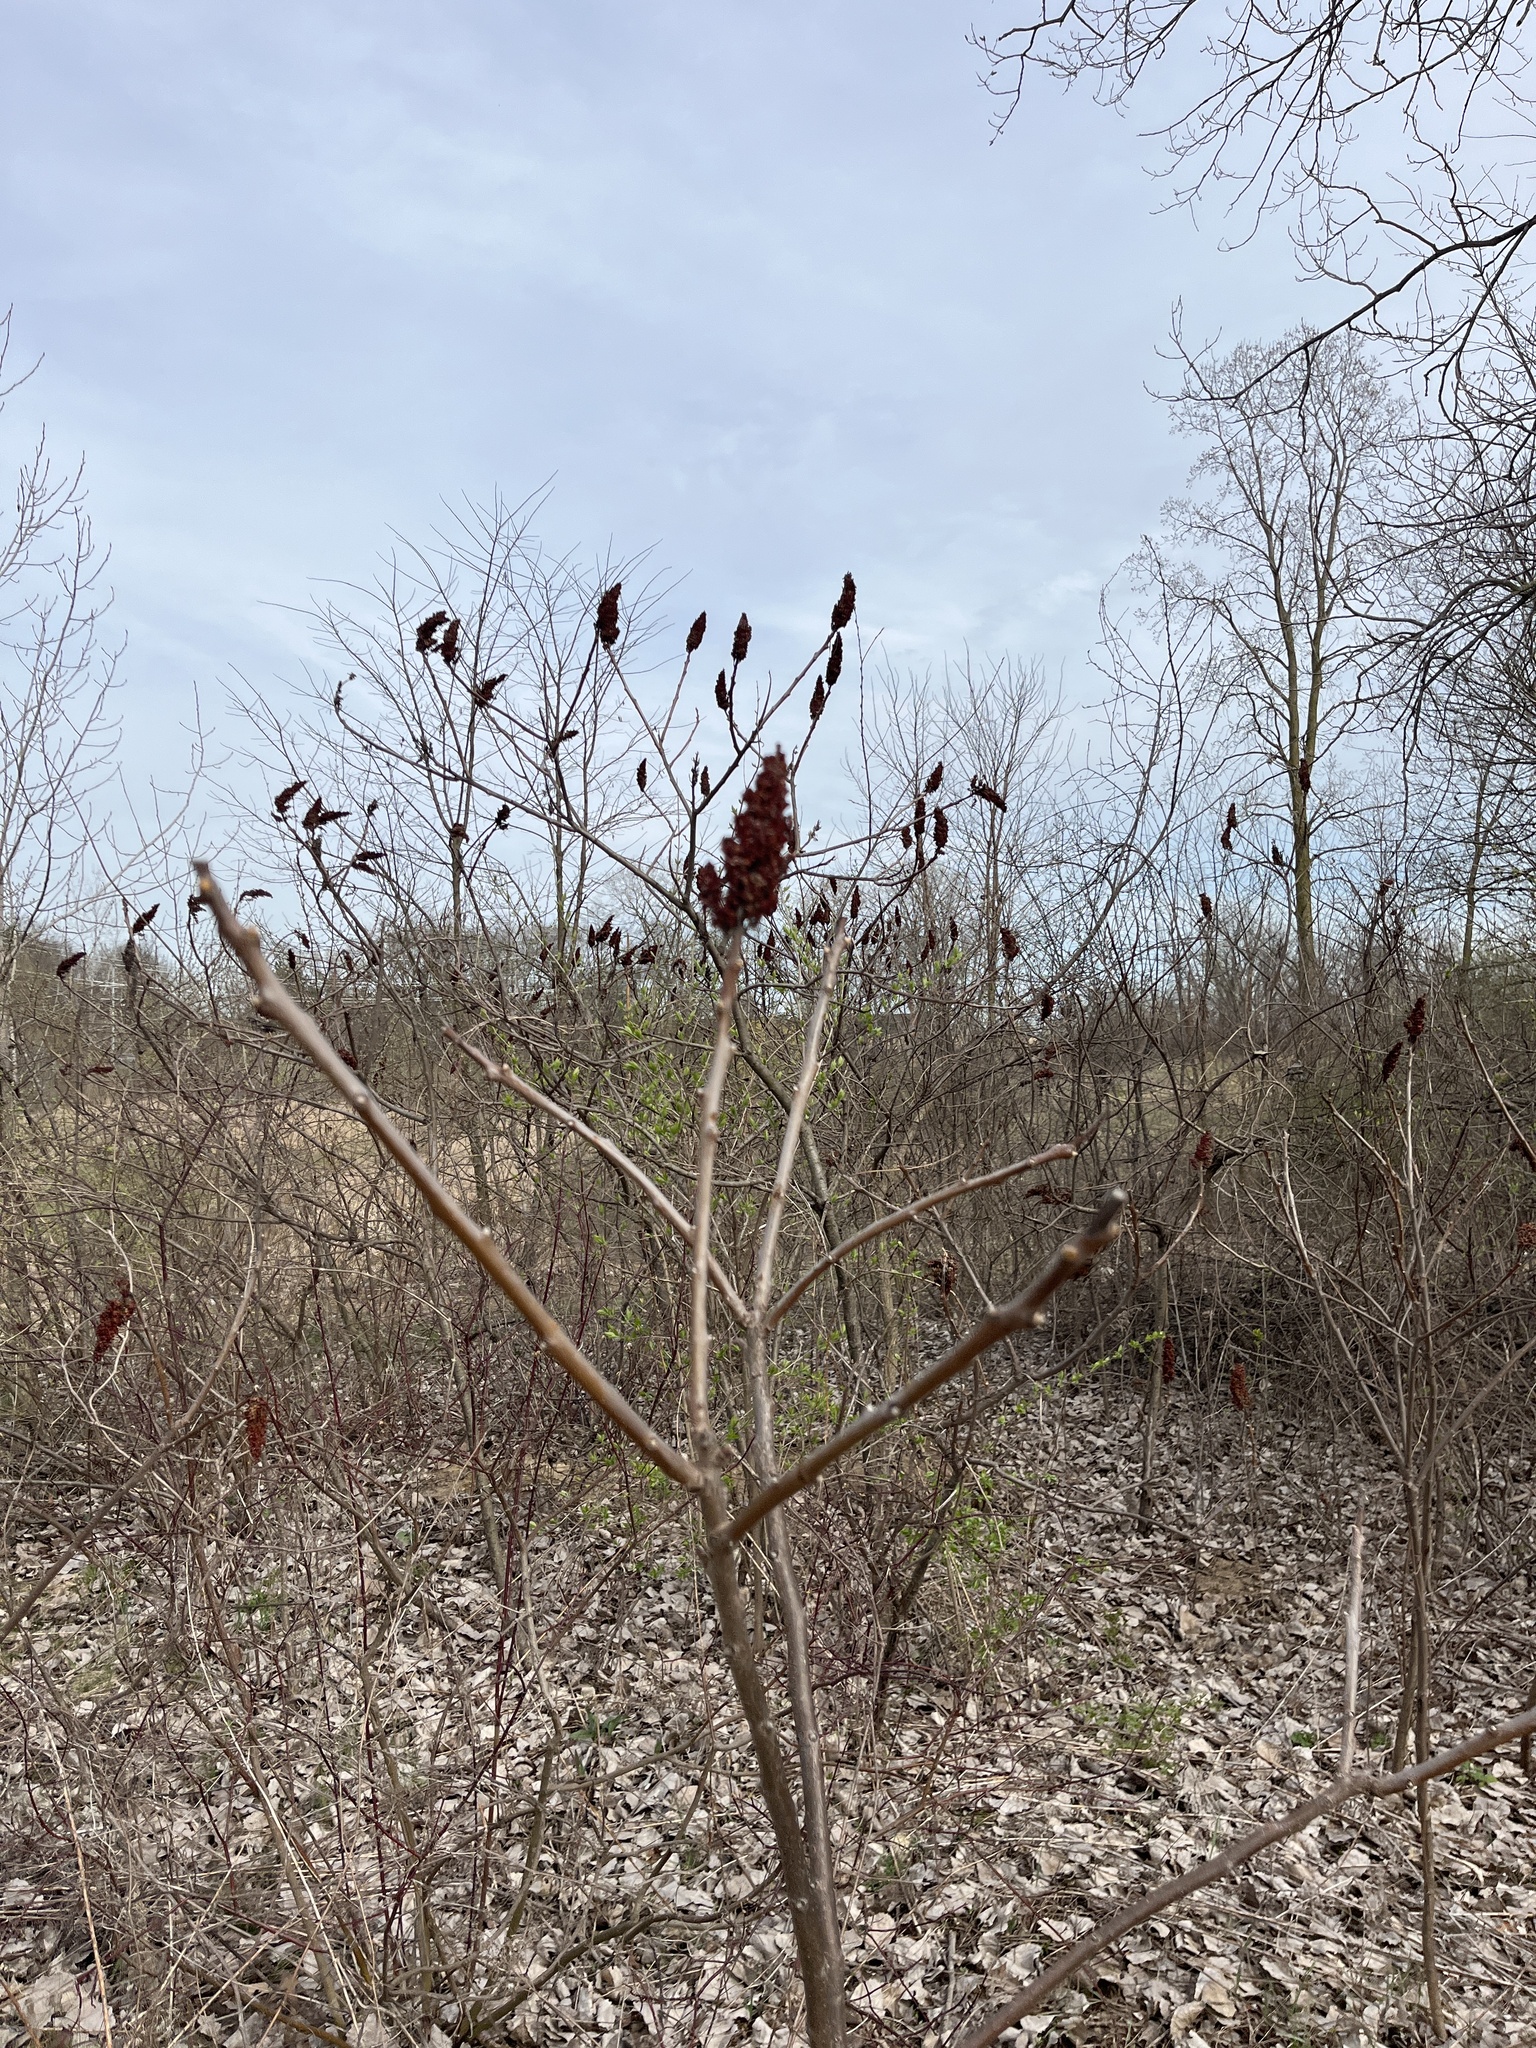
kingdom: Plantae
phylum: Tracheophyta
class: Magnoliopsida
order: Sapindales
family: Anacardiaceae
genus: Rhus
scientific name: Rhus typhina
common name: Staghorn sumac
